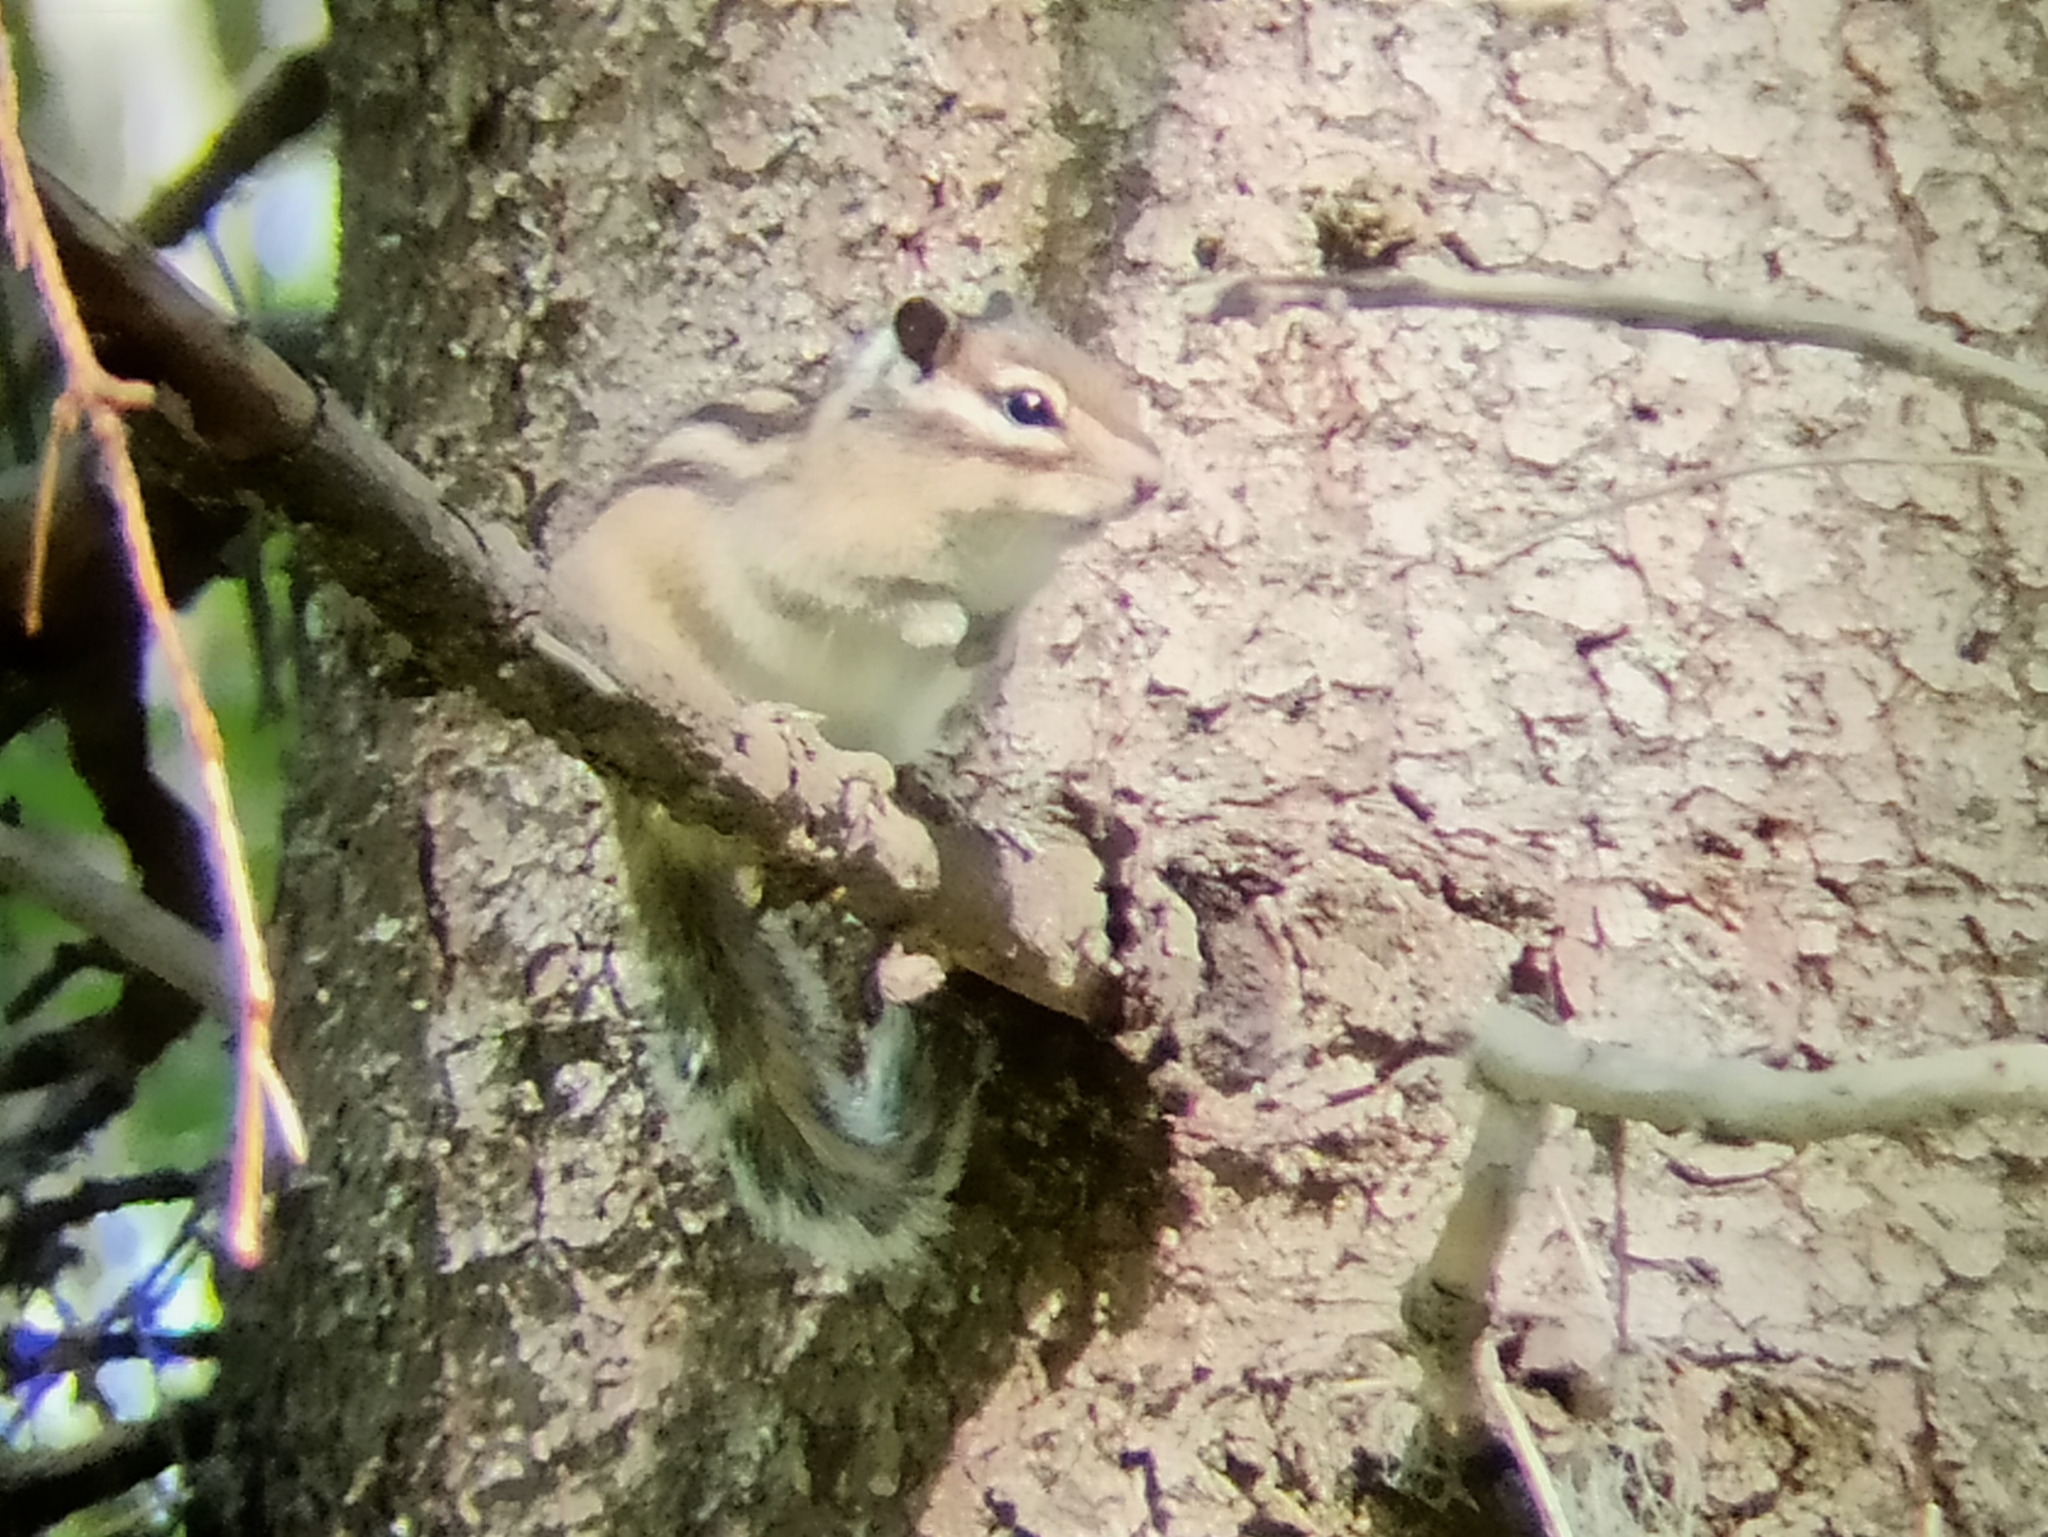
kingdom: Animalia
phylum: Chordata
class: Mammalia
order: Rodentia
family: Sciuridae
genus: Tamias
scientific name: Tamias sibiricus
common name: Siberian chipmunk
